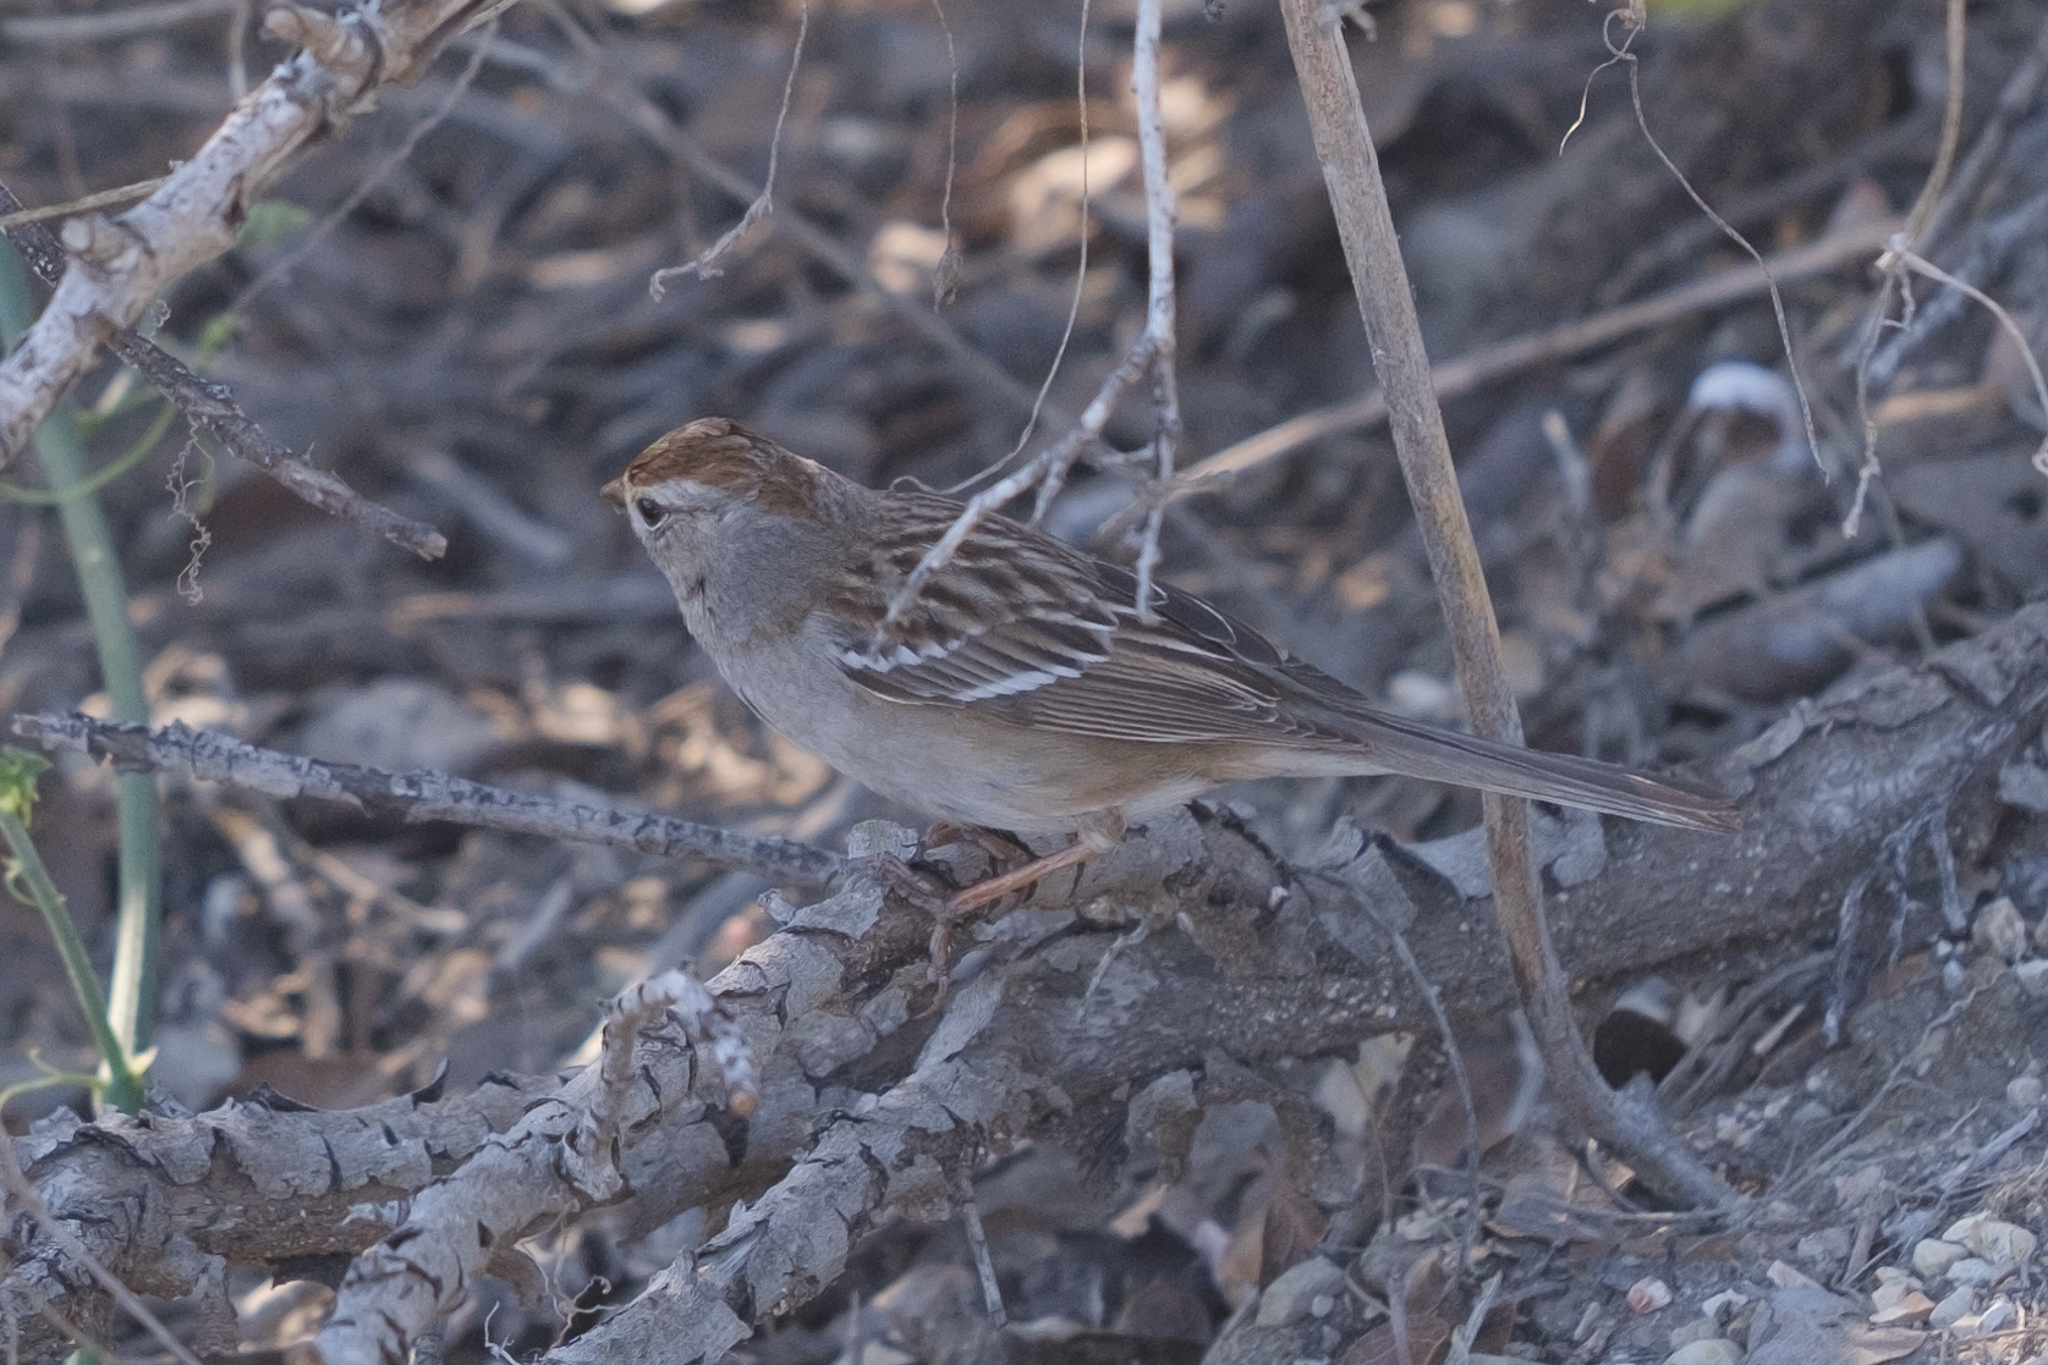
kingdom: Animalia
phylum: Chordata
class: Aves
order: Passeriformes
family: Passerellidae
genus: Zonotrichia
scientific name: Zonotrichia leucophrys
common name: White-crowned sparrow
